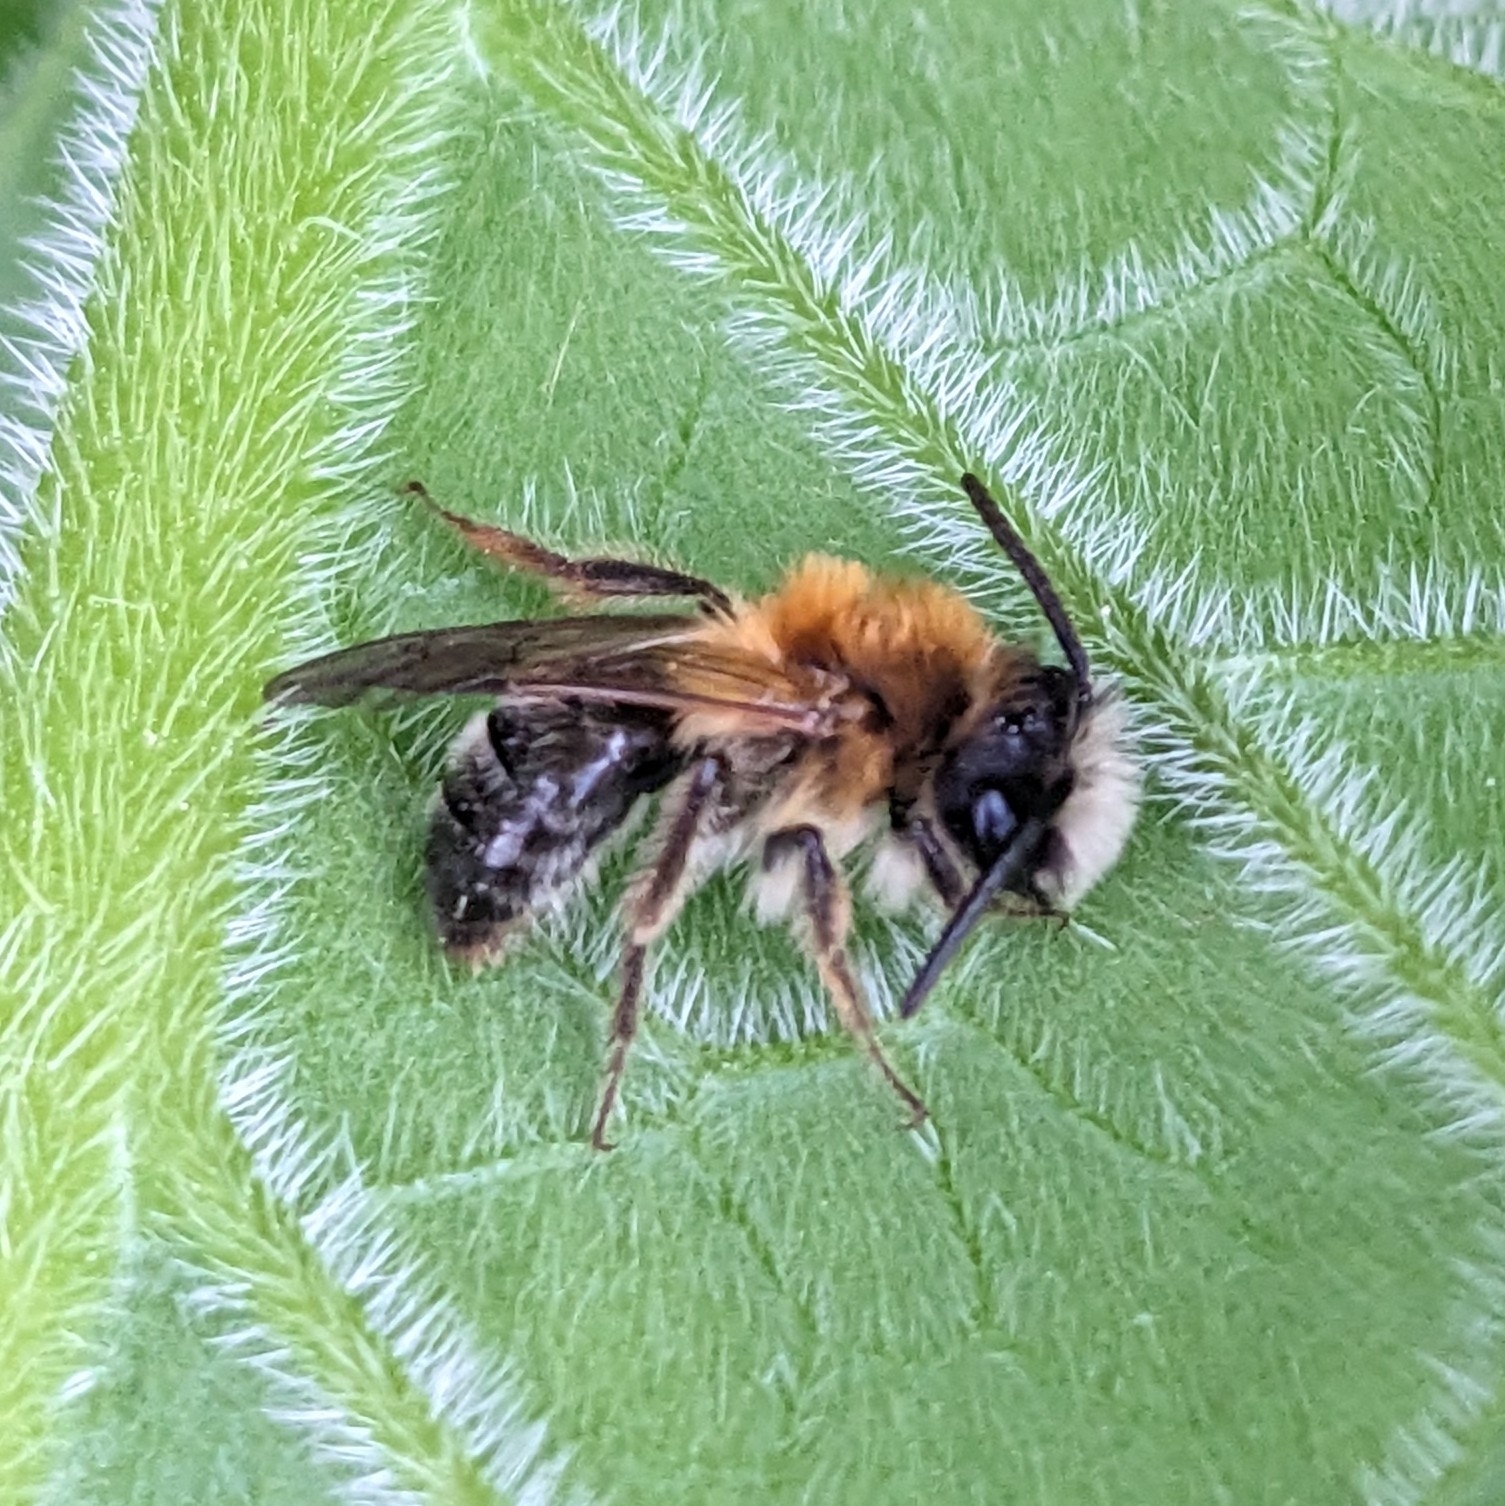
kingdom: Animalia
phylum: Arthropoda
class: Insecta
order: Hymenoptera
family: Andrenidae
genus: Andrena
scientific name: Andrena nitida
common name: Grey-patched mining bee
